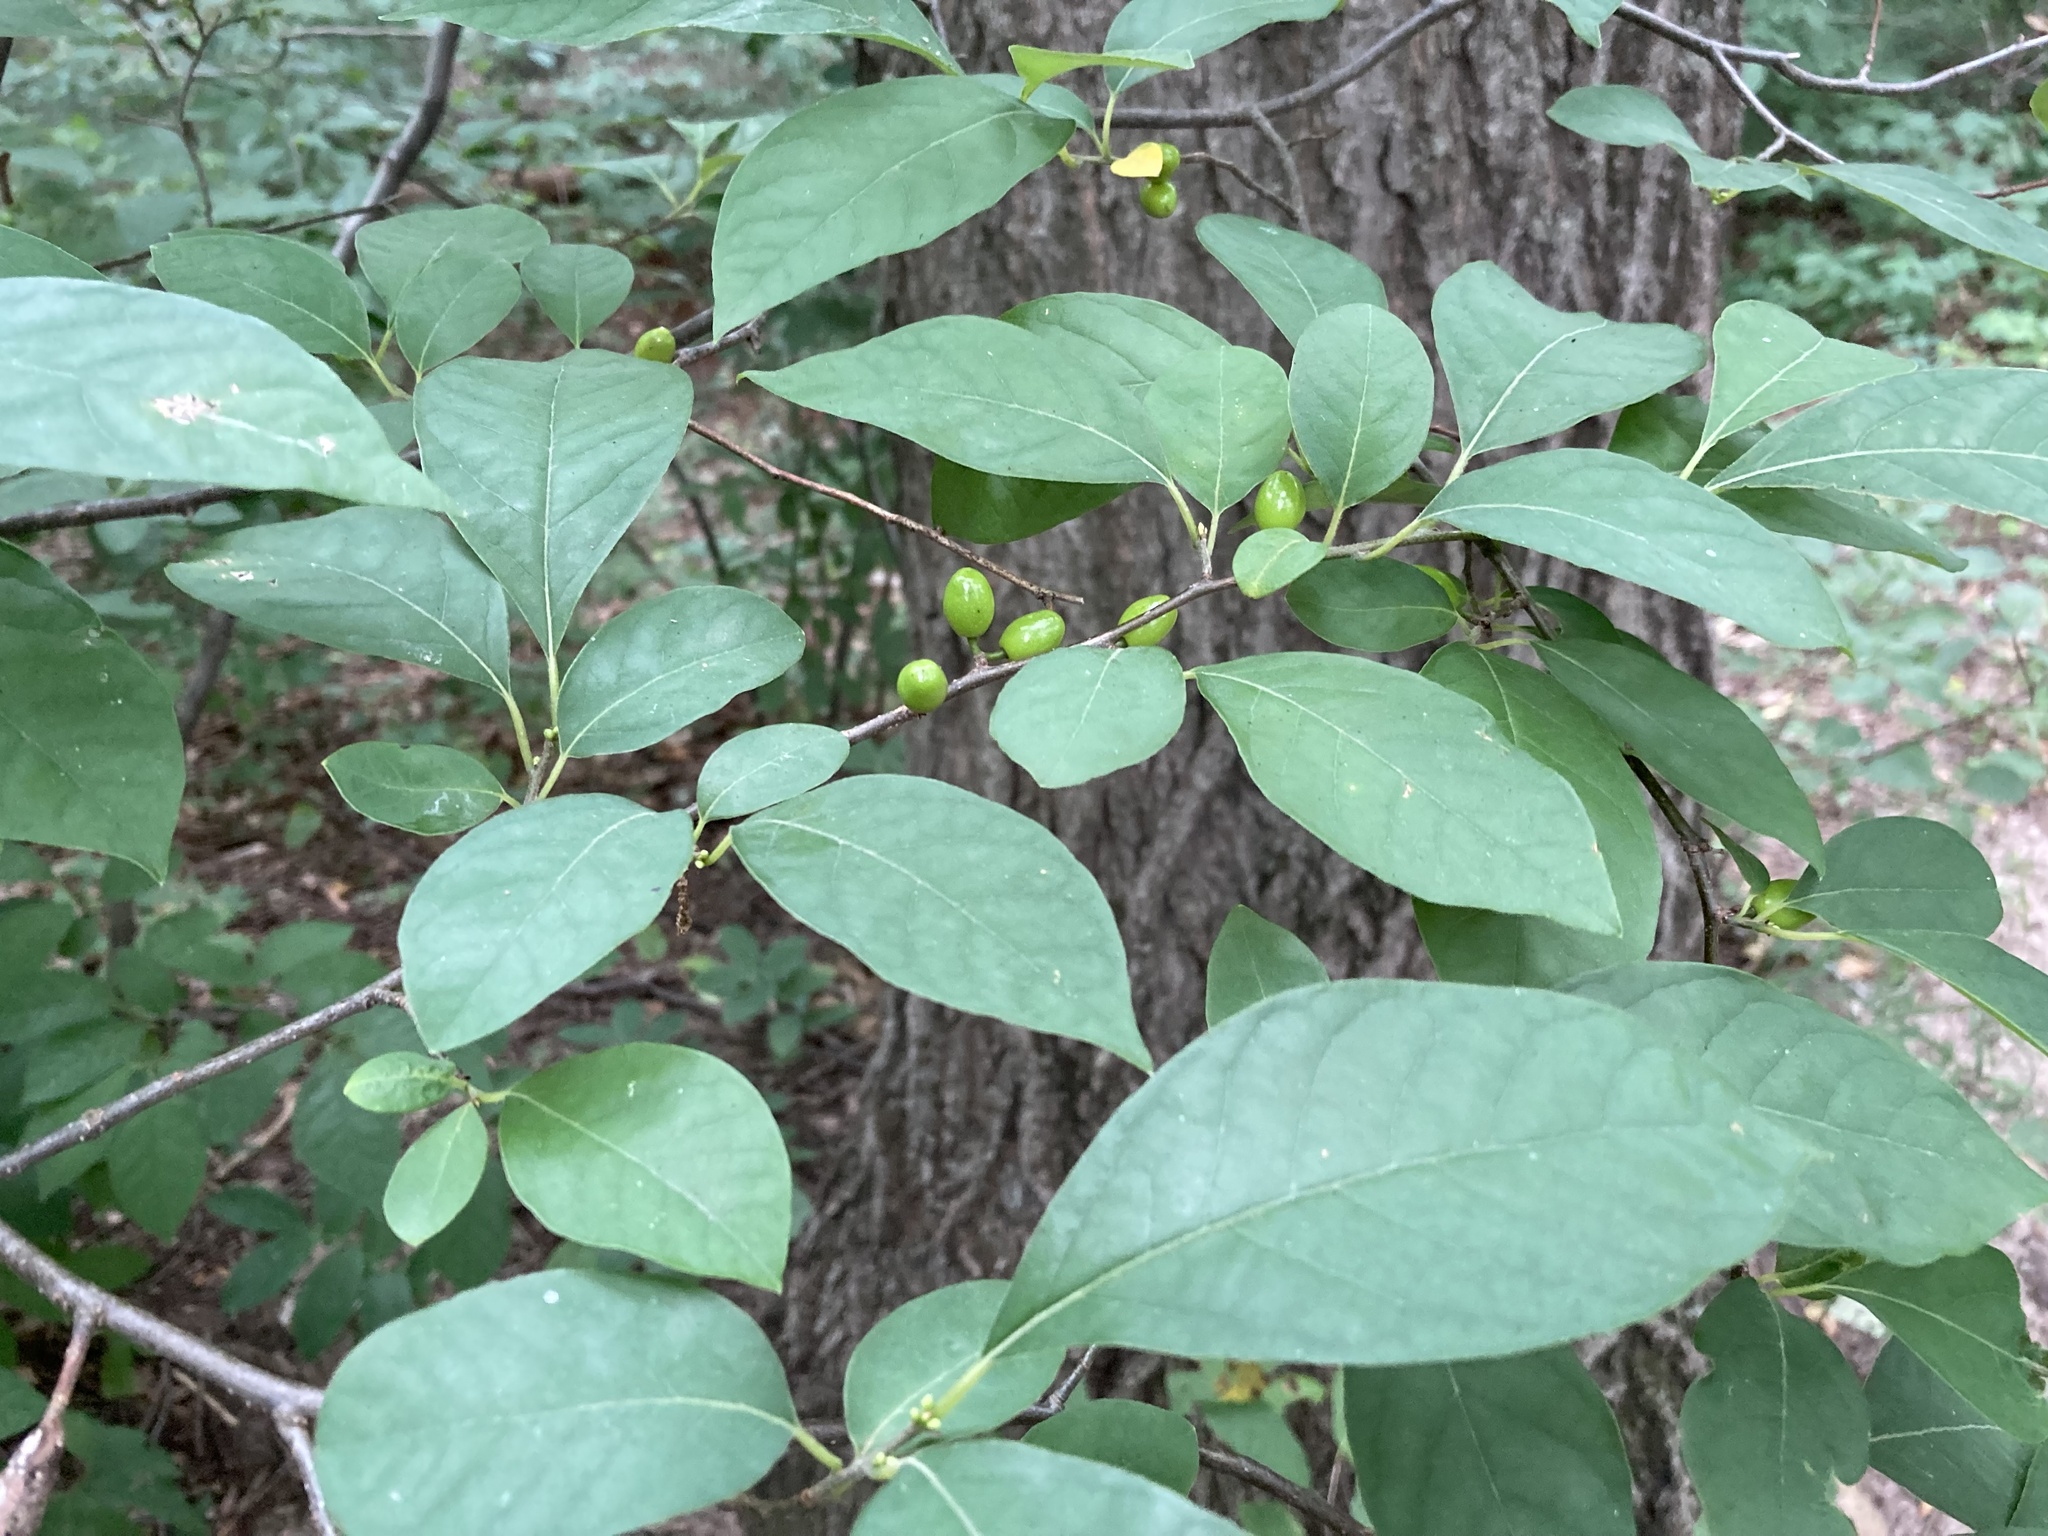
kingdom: Plantae
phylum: Tracheophyta
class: Magnoliopsida
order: Laurales
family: Lauraceae
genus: Lindera
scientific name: Lindera benzoin
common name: Spicebush
